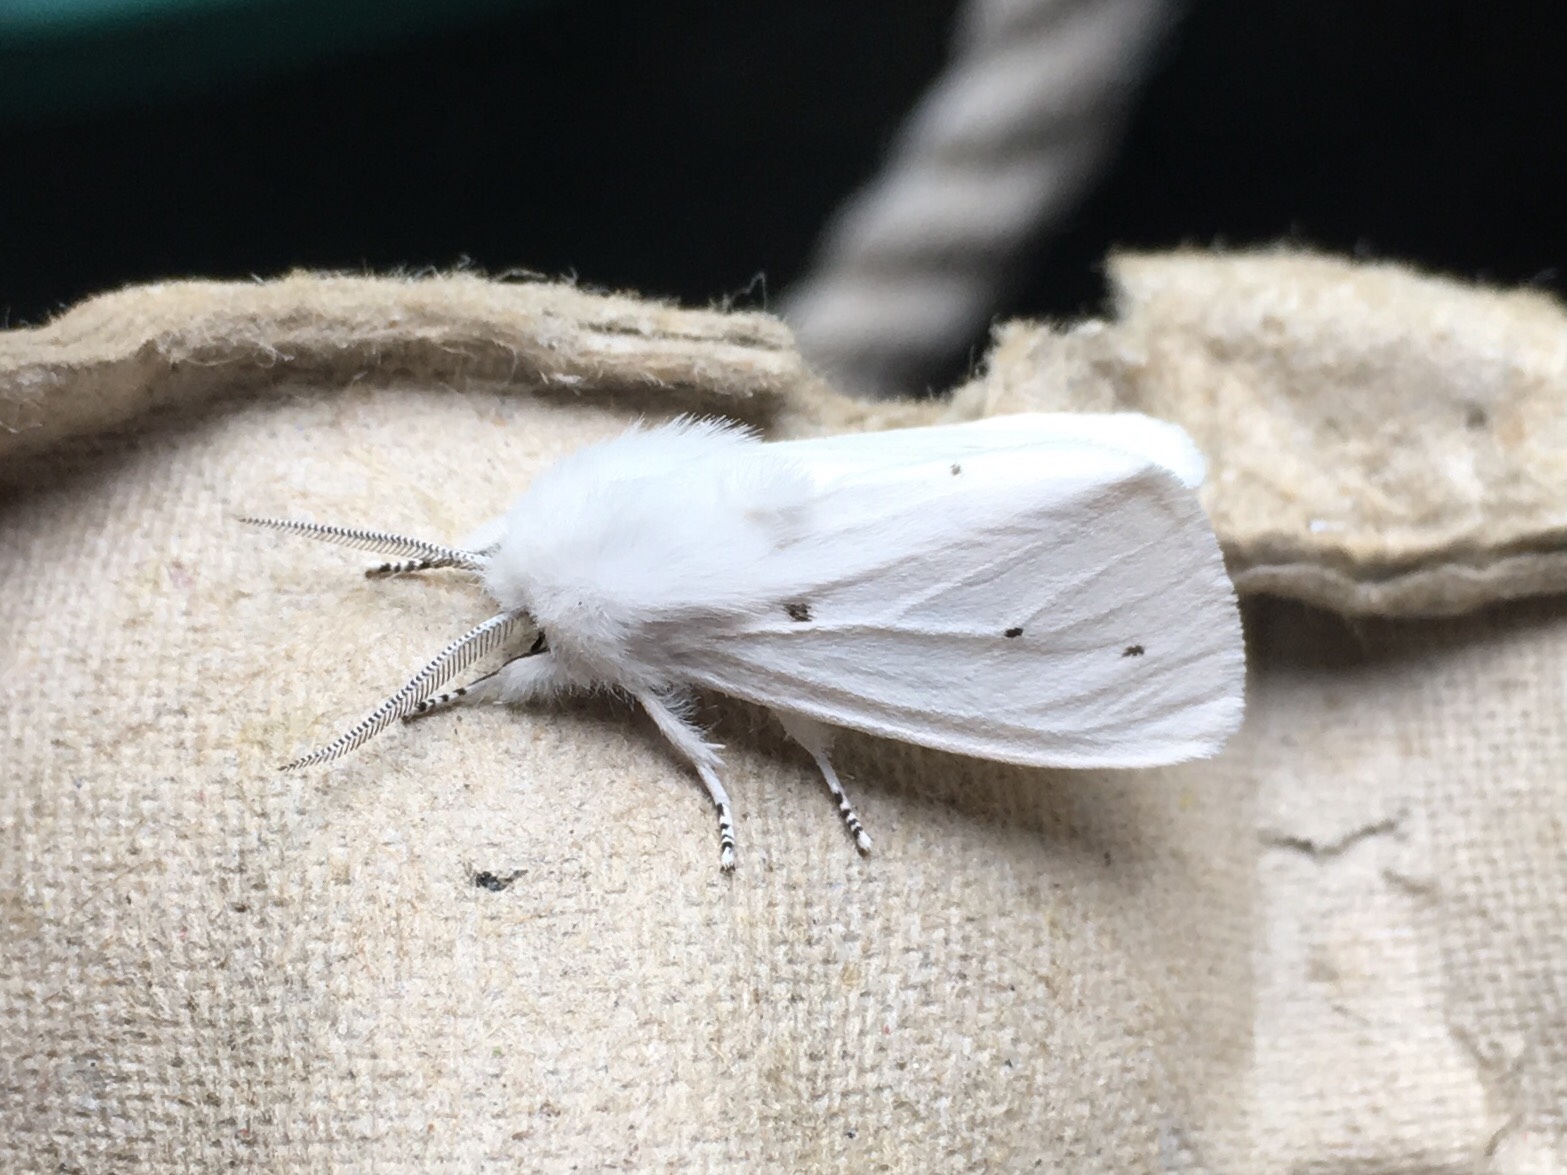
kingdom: Animalia
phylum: Arthropoda
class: Insecta
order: Lepidoptera
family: Erebidae
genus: Spilosoma
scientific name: Spilosoma virginica
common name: Virginia tiger moth
